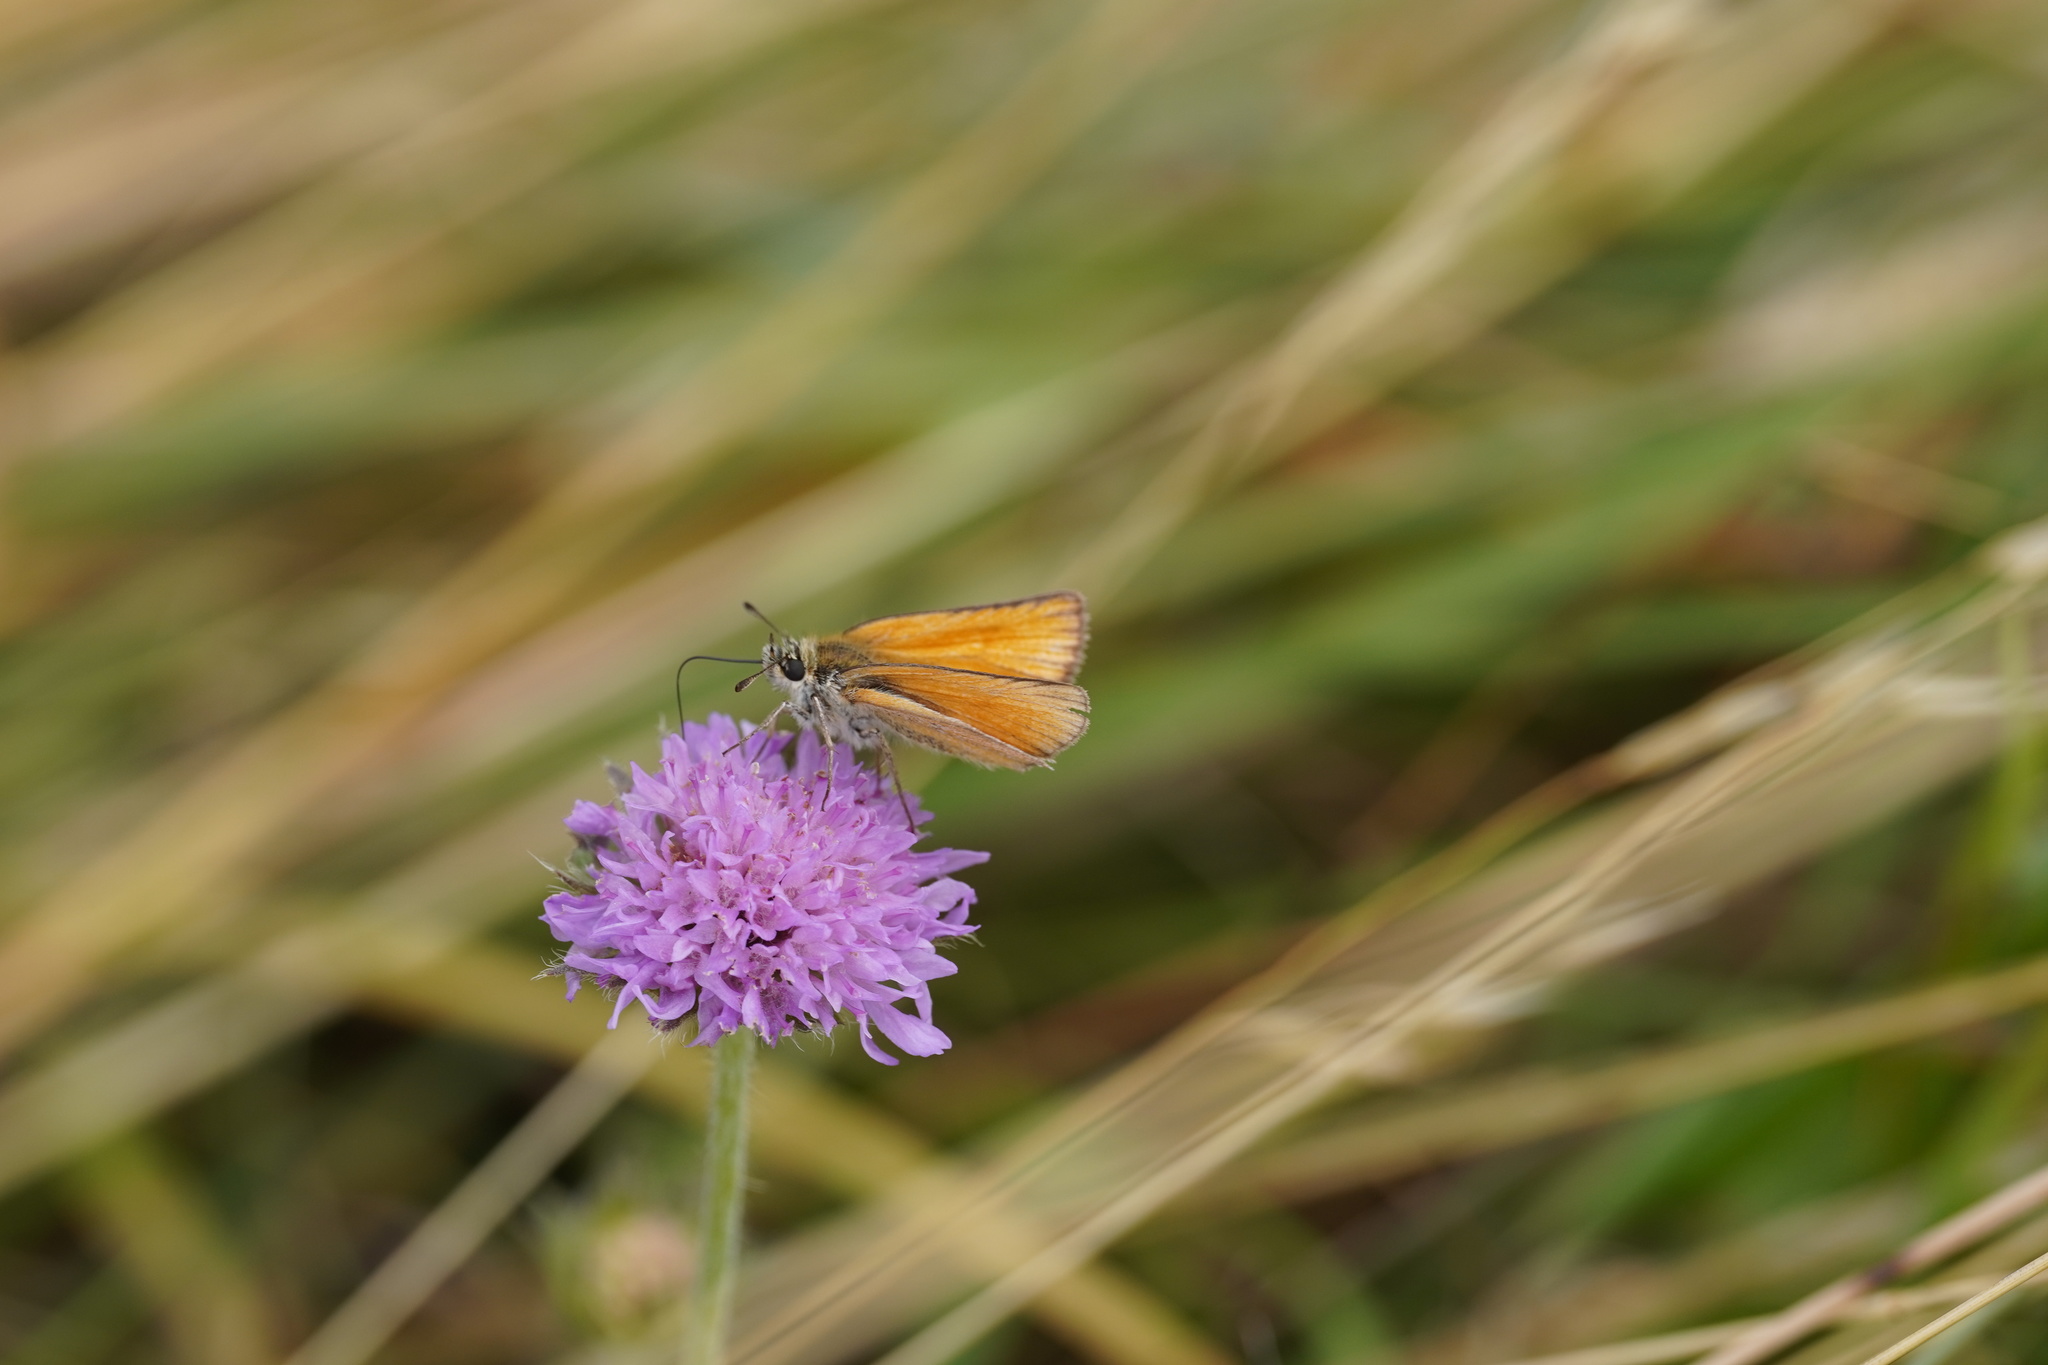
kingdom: Animalia
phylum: Arthropoda
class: Insecta
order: Lepidoptera
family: Hesperiidae
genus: Thymelicus
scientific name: Thymelicus lineola
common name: Essex skipper
